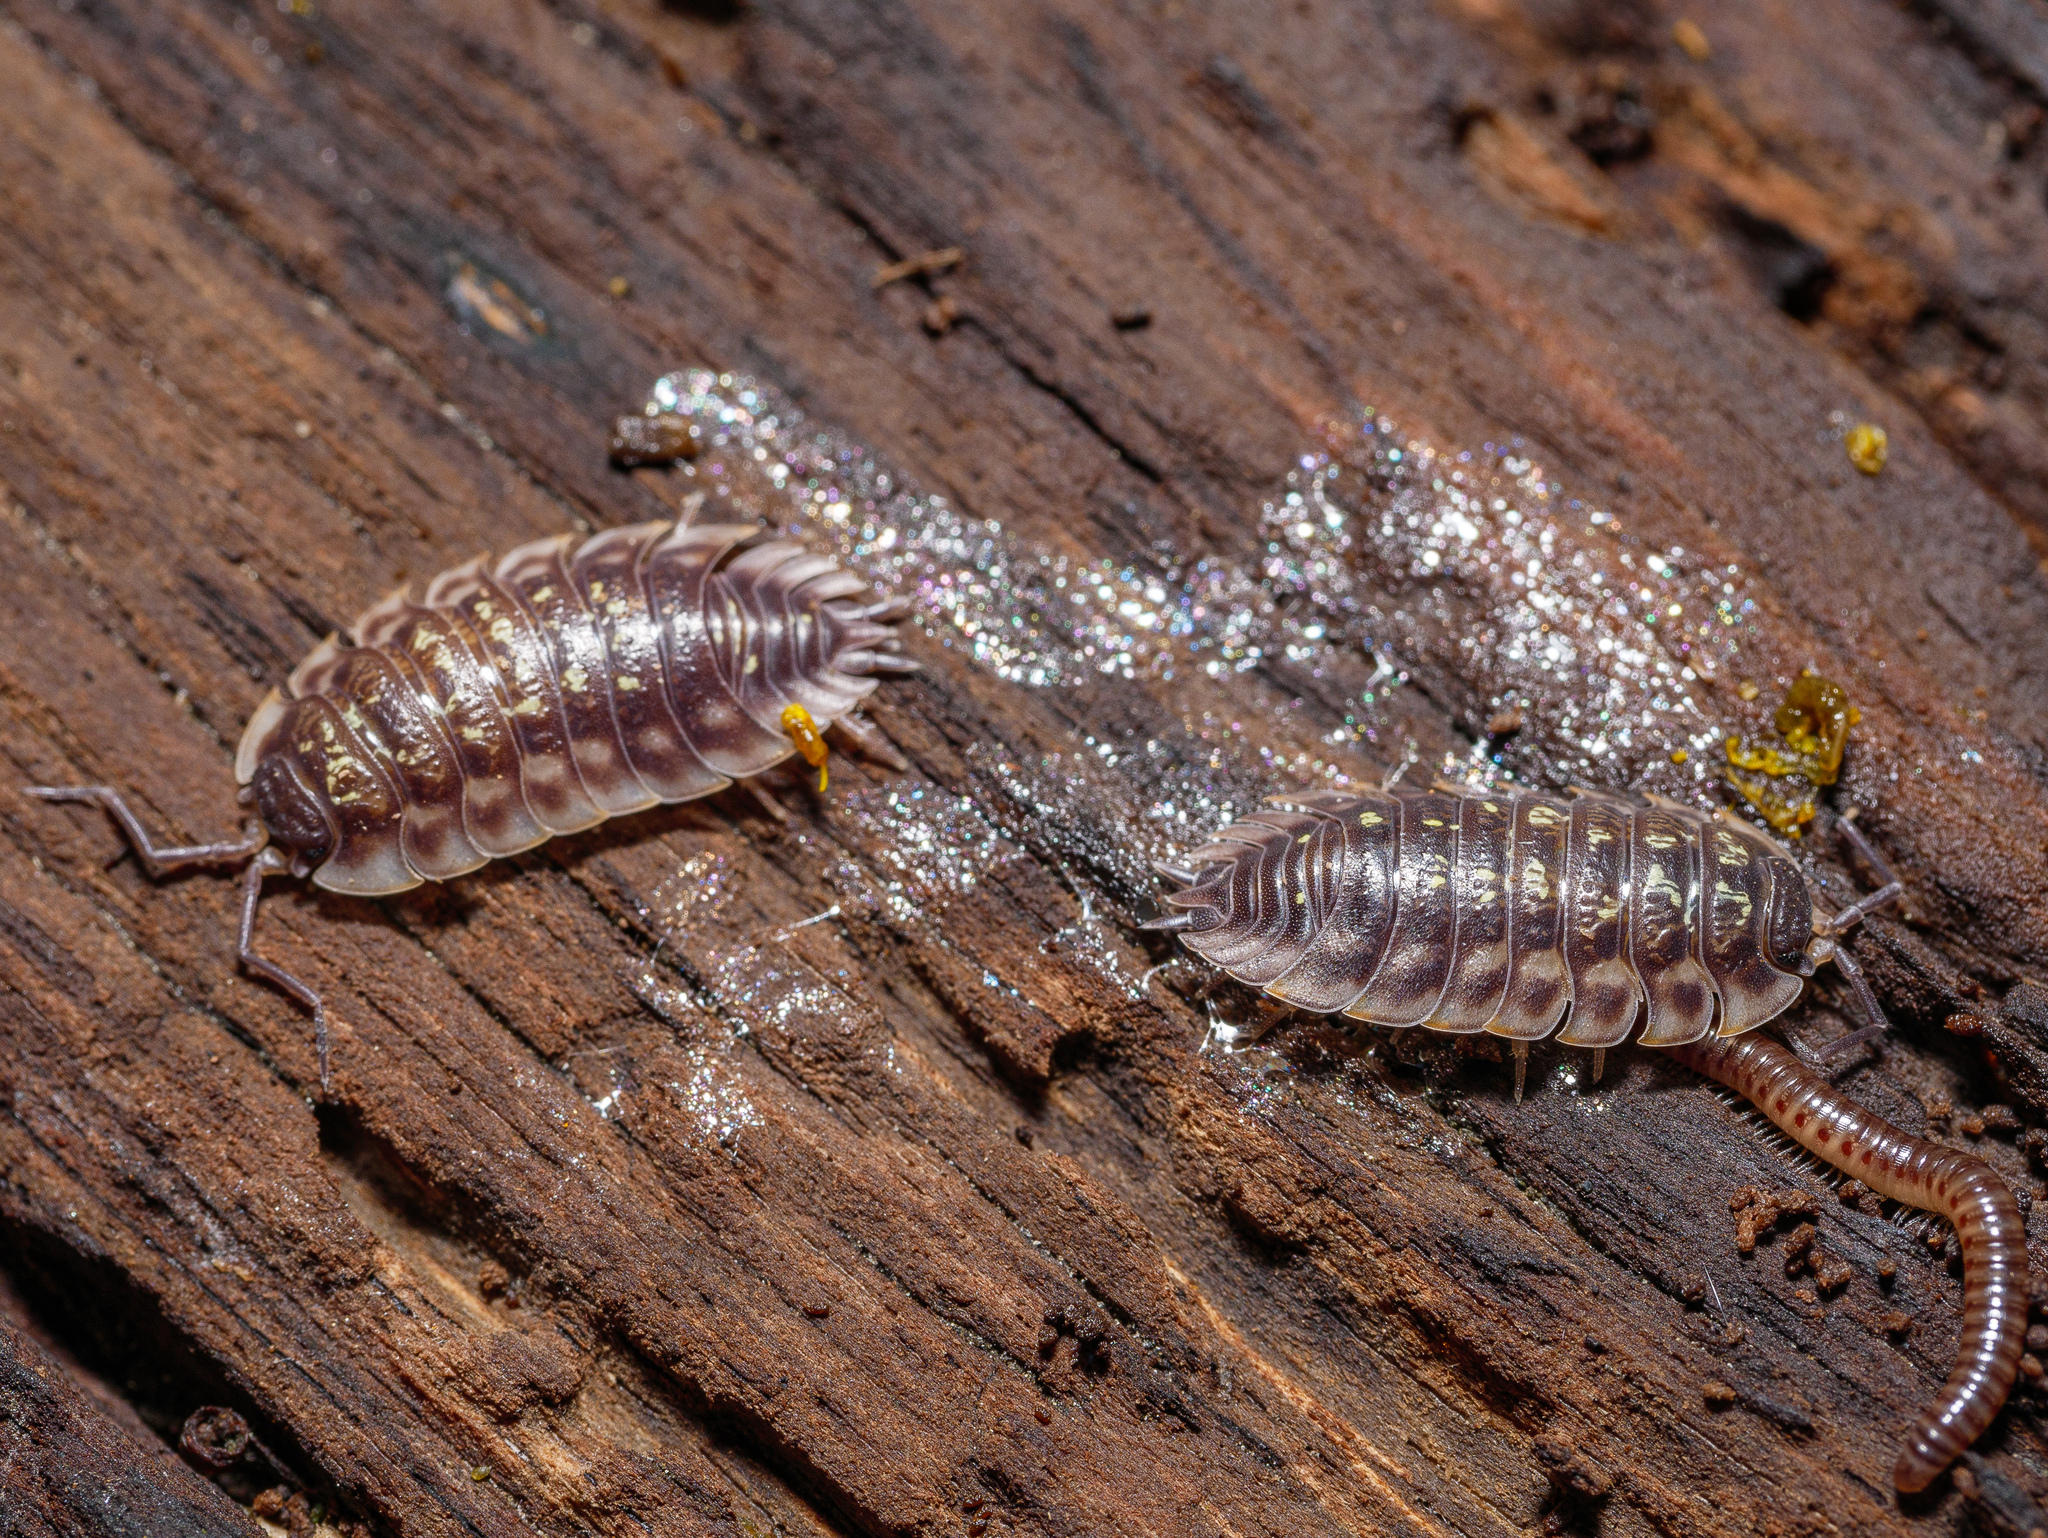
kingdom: Animalia
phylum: Arthropoda
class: Malacostraca
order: Isopoda
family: Oniscidae
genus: Oniscus
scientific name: Oniscus asellus
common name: Common shiny woodlouse
